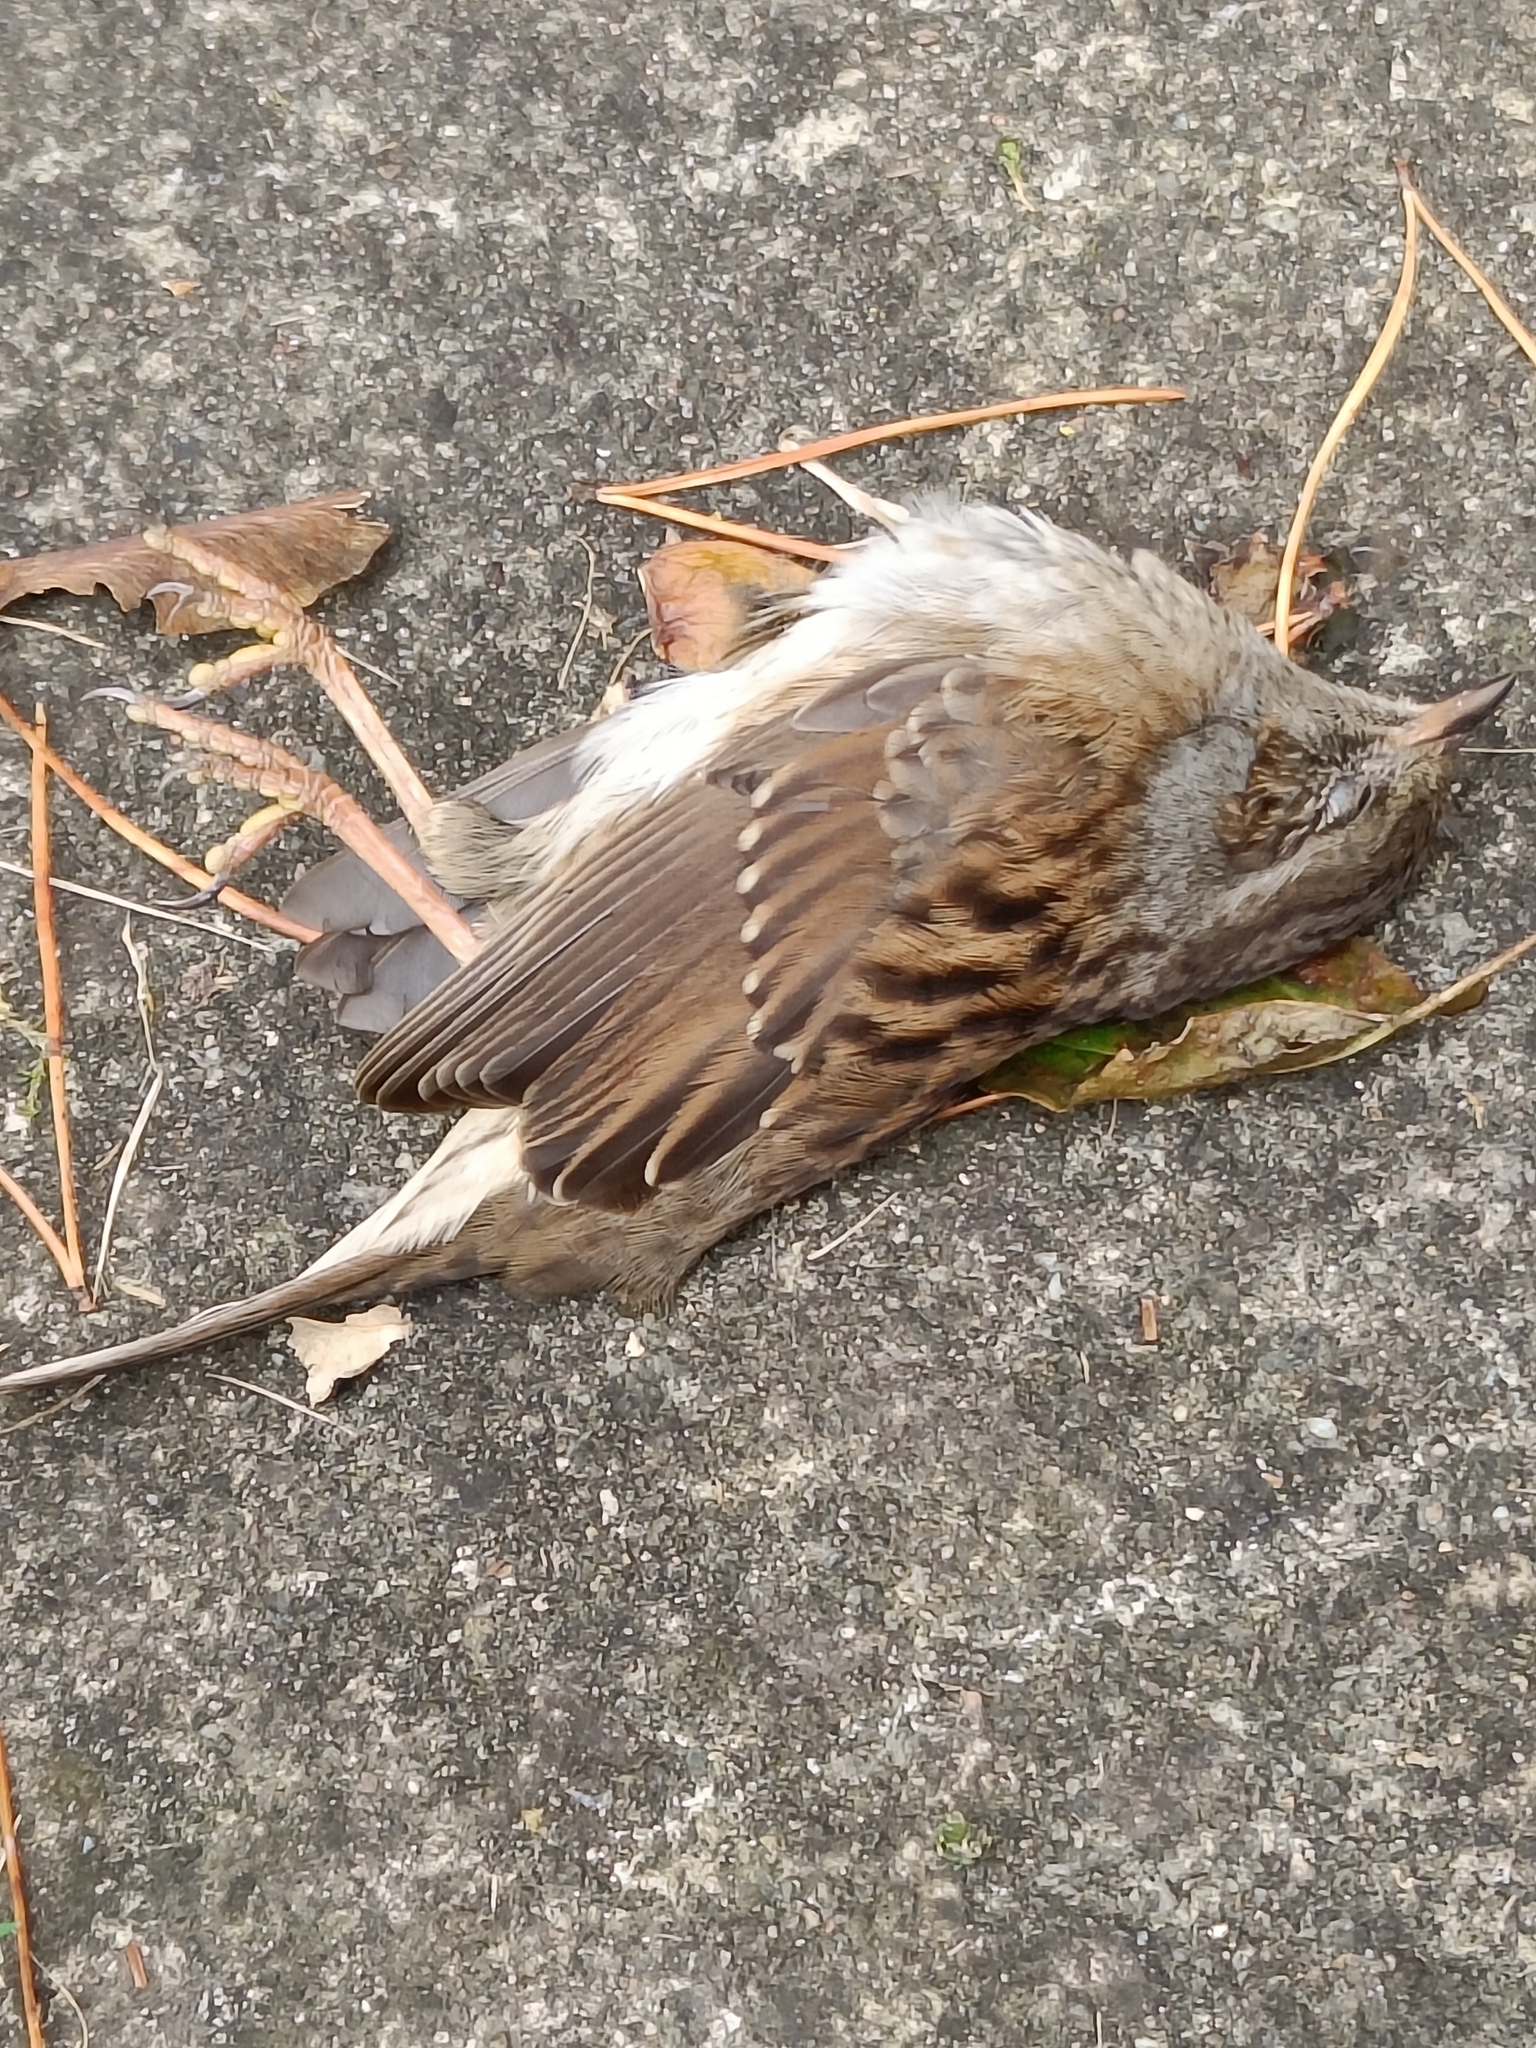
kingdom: Animalia
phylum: Chordata
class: Aves
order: Passeriformes
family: Prunellidae
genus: Prunella
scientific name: Prunella modularis
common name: Dunnock
